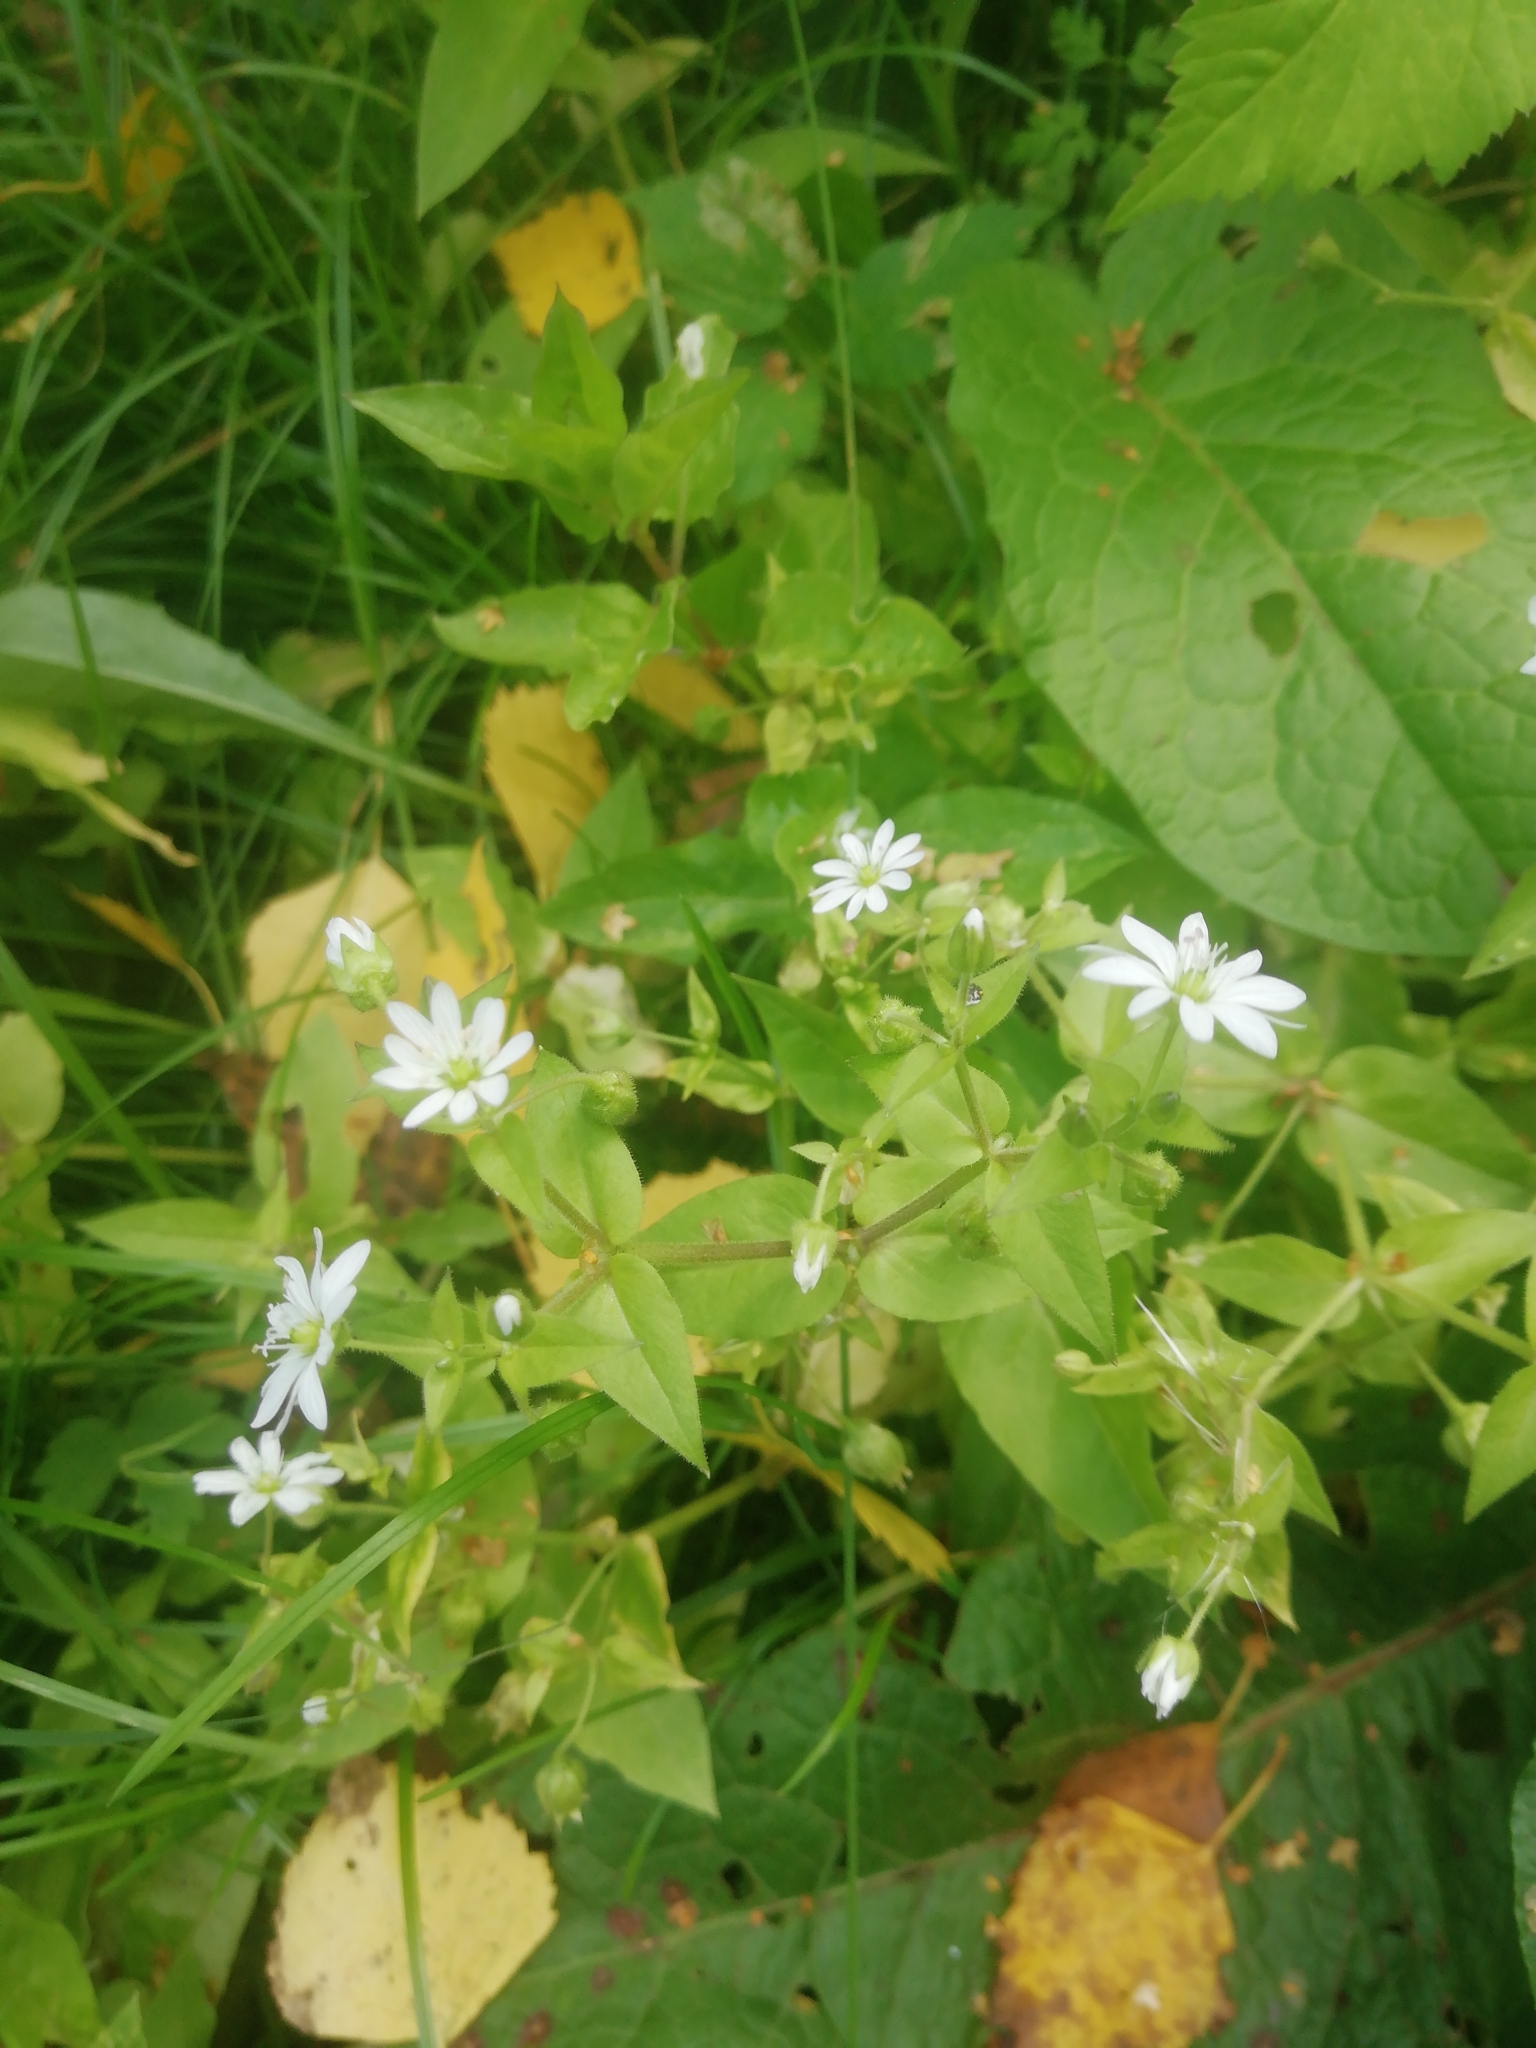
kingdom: Plantae
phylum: Tracheophyta
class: Magnoliopsida
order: Caryophyllales
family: Caryophyllaceae
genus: Stellaria
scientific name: Stellaria aquatica
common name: Water chickweed
